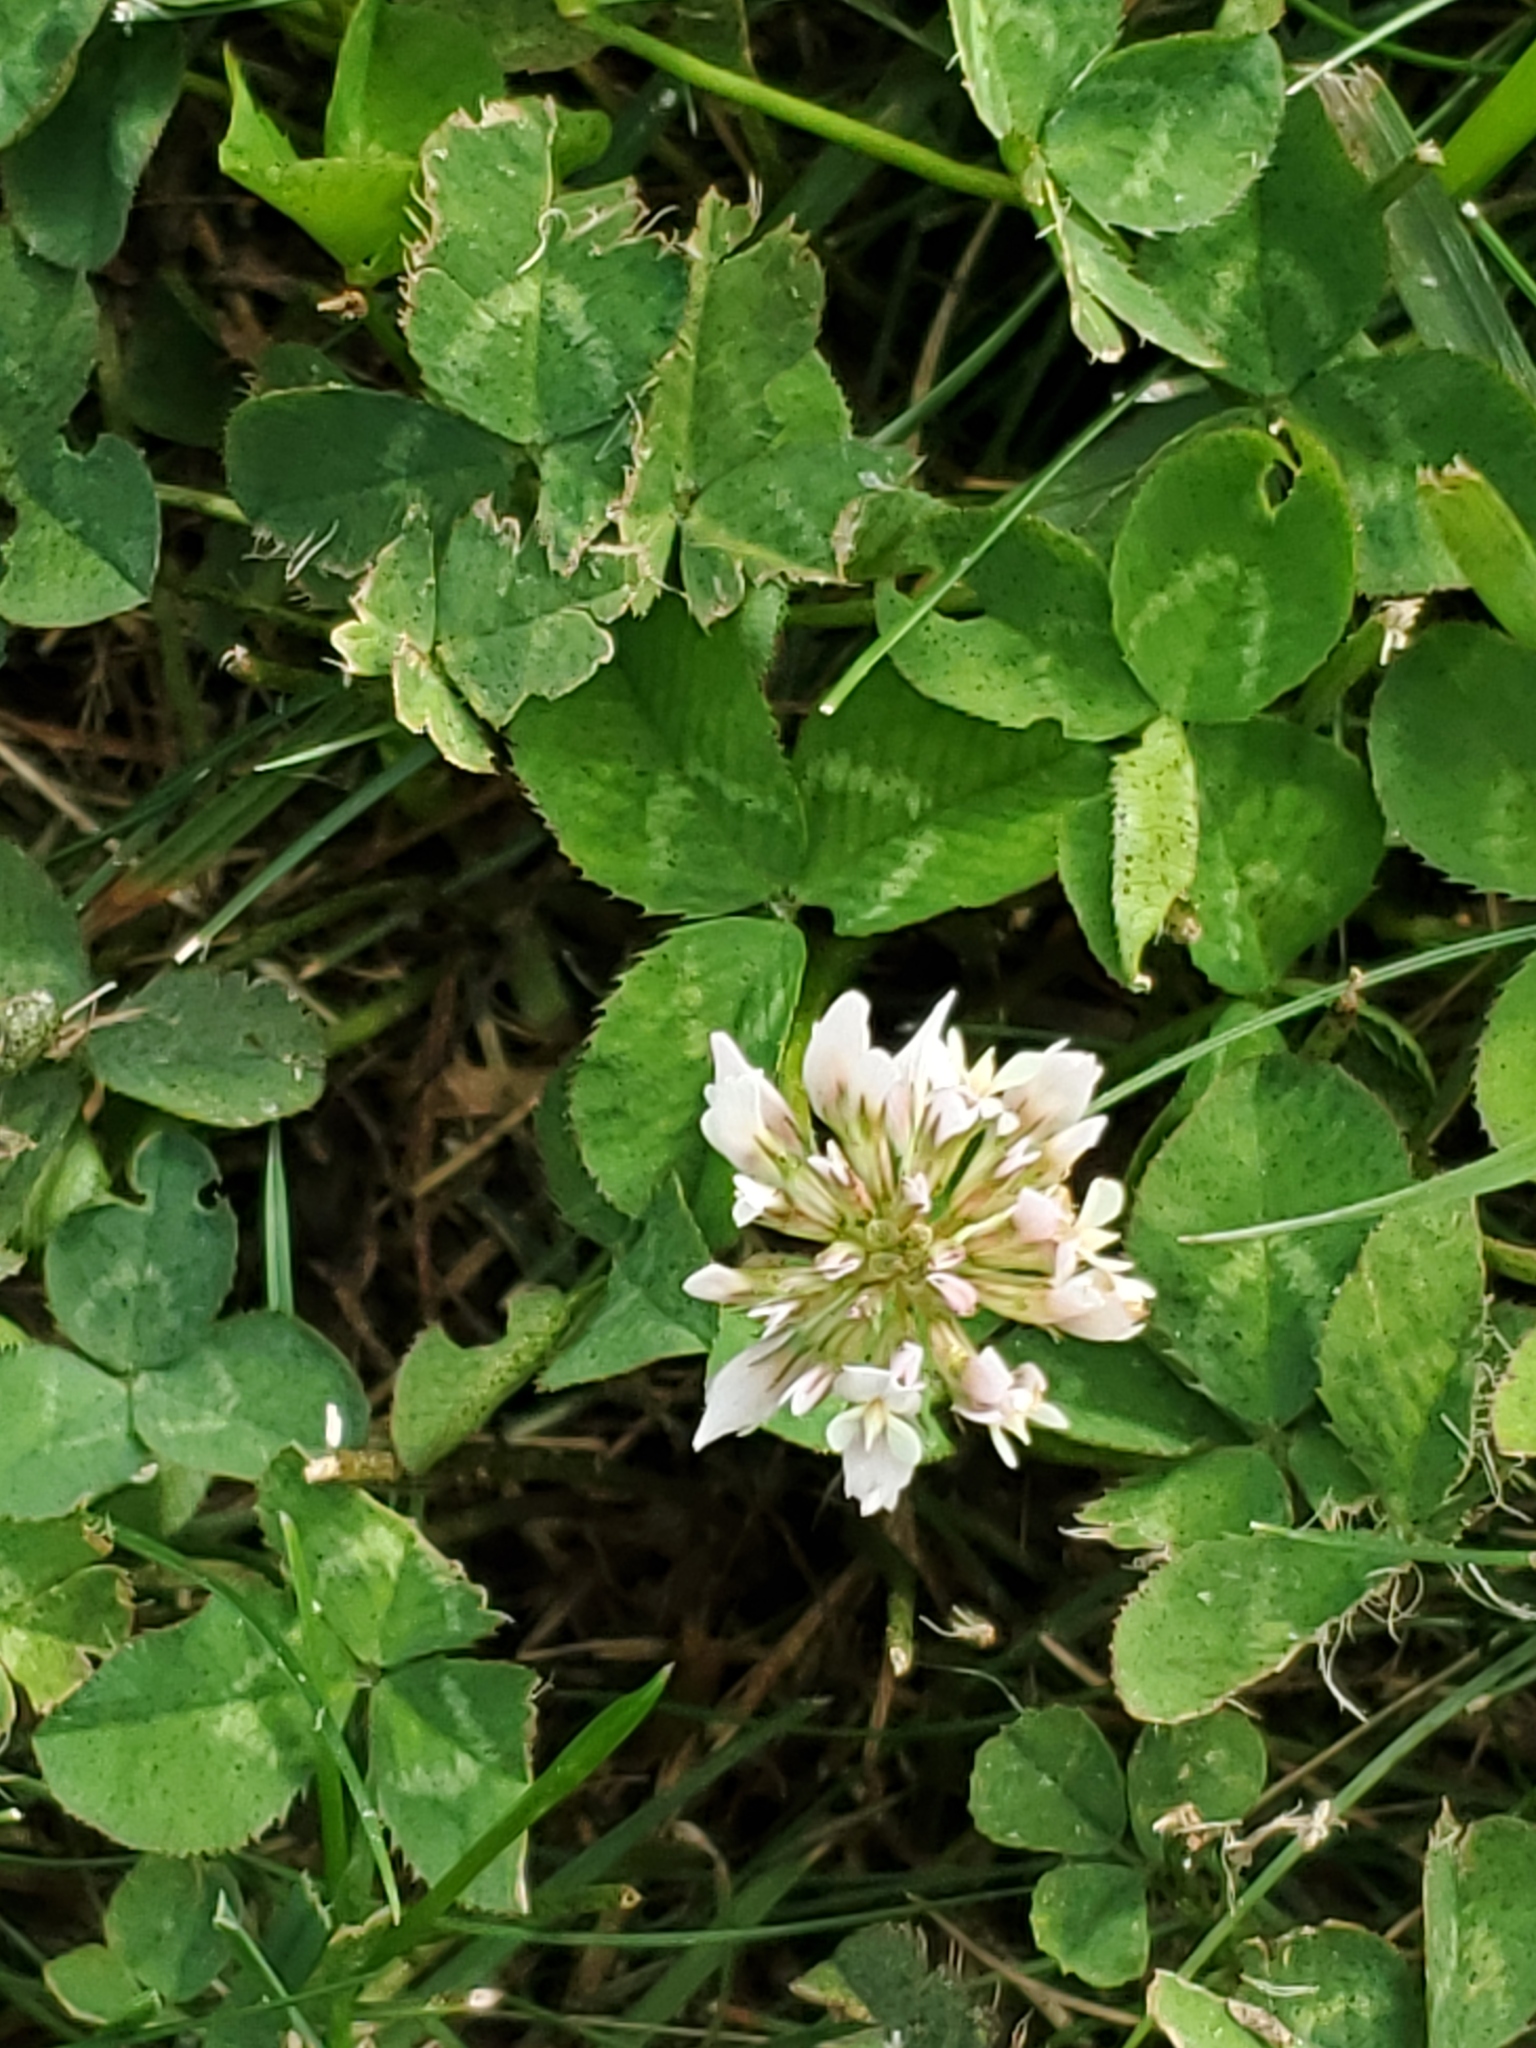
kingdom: Plantae
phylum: Tracheophyta
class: Magnoliopsida
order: Fabales
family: Fabaceae
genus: Trifolium
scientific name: Trifolium repens
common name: White clover
